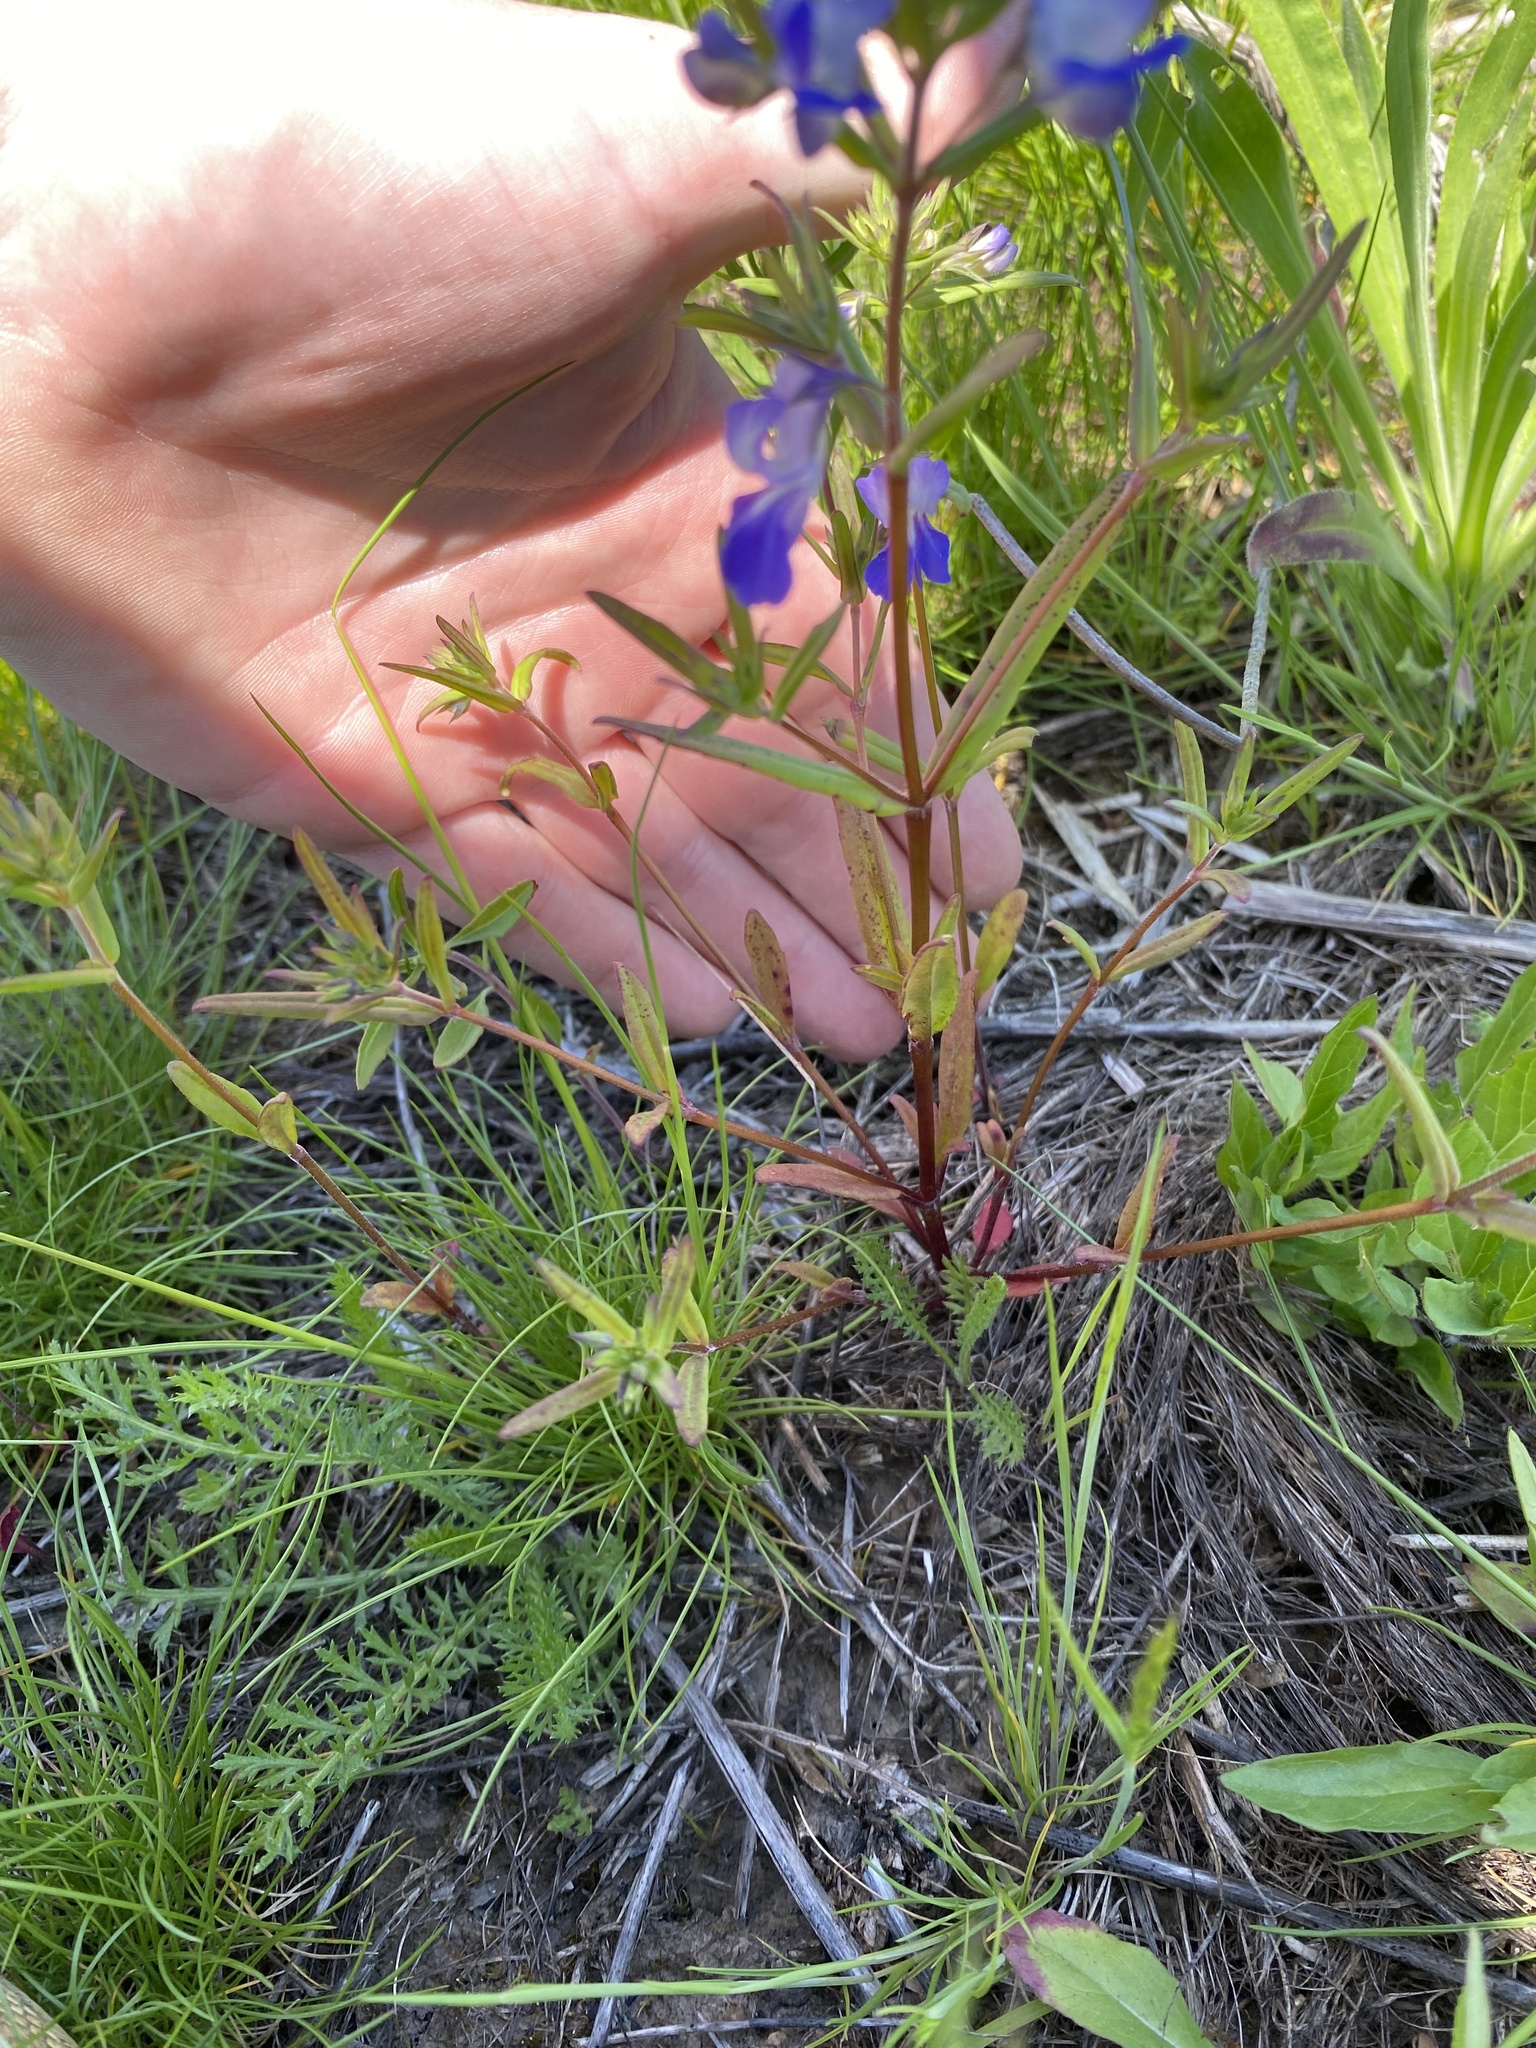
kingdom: Plantae
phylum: Tracheophyta
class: Magnoliopsida
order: Lamiales
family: Plantaginaceae
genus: Collinsia
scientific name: Collinsia grandiflora
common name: Large-flower blue-eyed-mary
